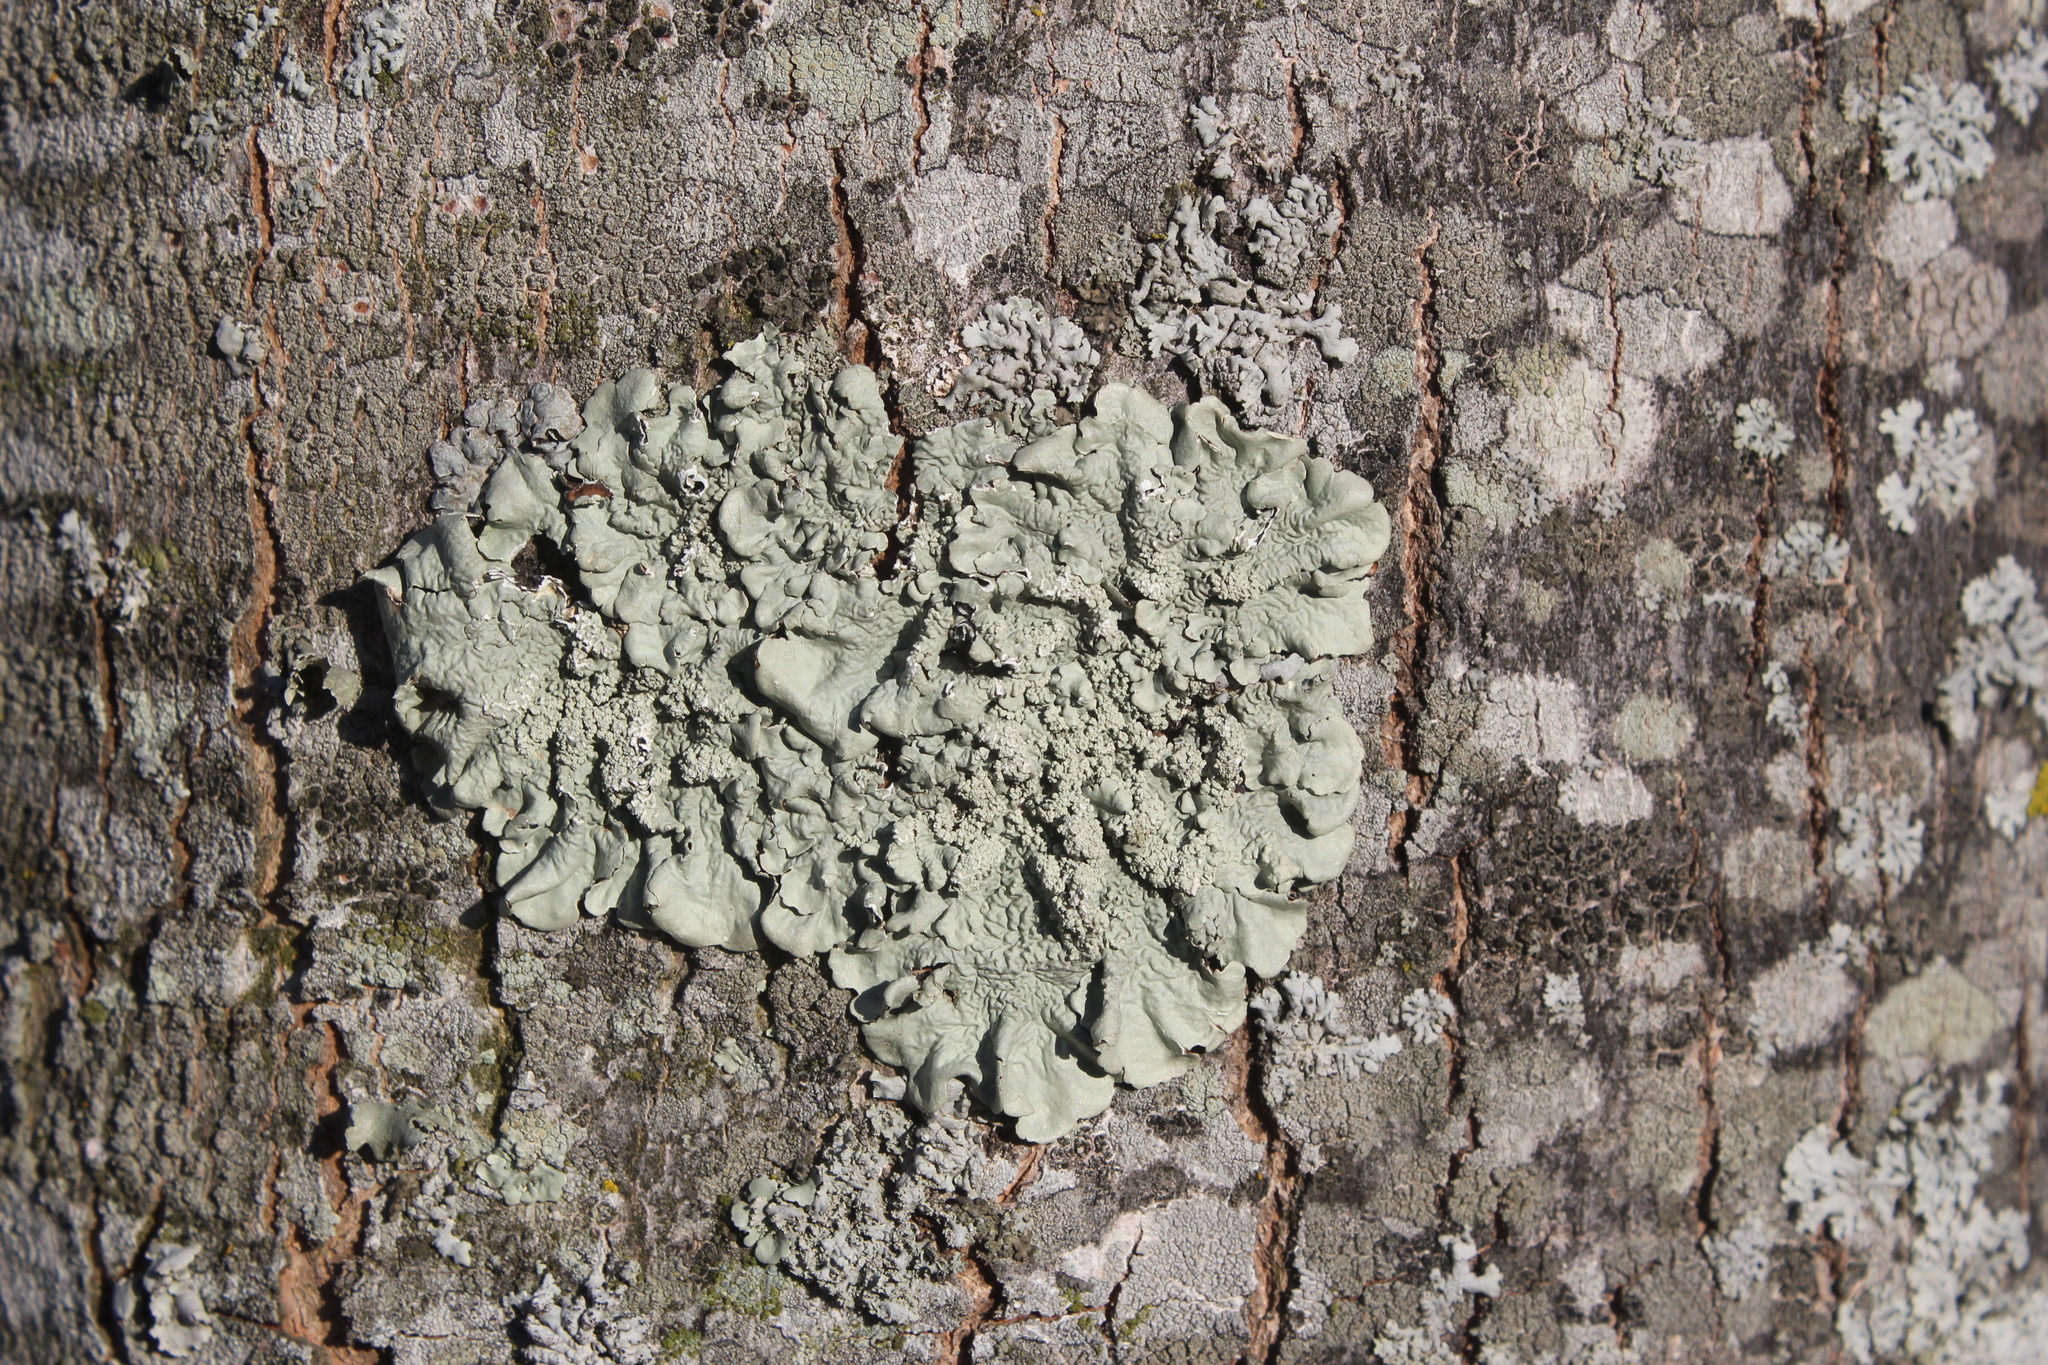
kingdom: Fungi
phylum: Ascomycota
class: Lecanoromycetes
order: Lecanorales
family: Parmeliaceae
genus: Flavoparmelia
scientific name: Flavoparmelia caperata
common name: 40-mile per hour lichen
